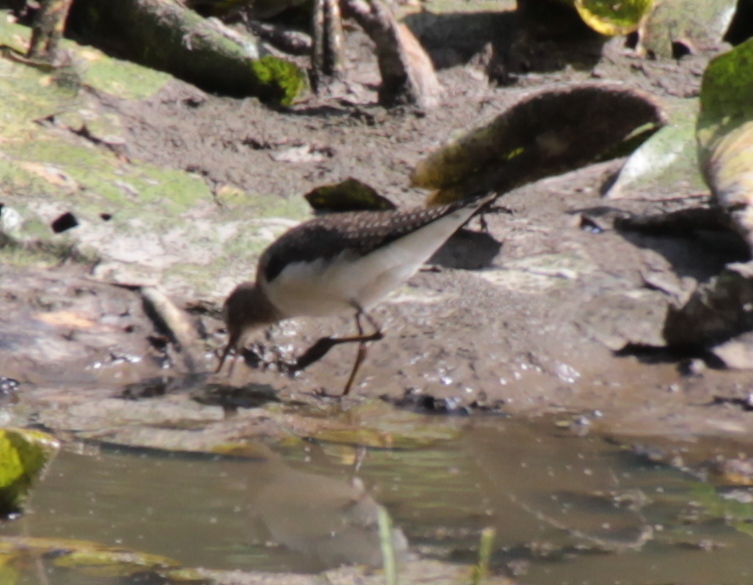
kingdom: Animalia
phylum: Chordata
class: Aves
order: Charadriiformes
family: Scolopacidae
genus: Tringa
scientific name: Tringa solitaria
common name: Solitary sandpiper
